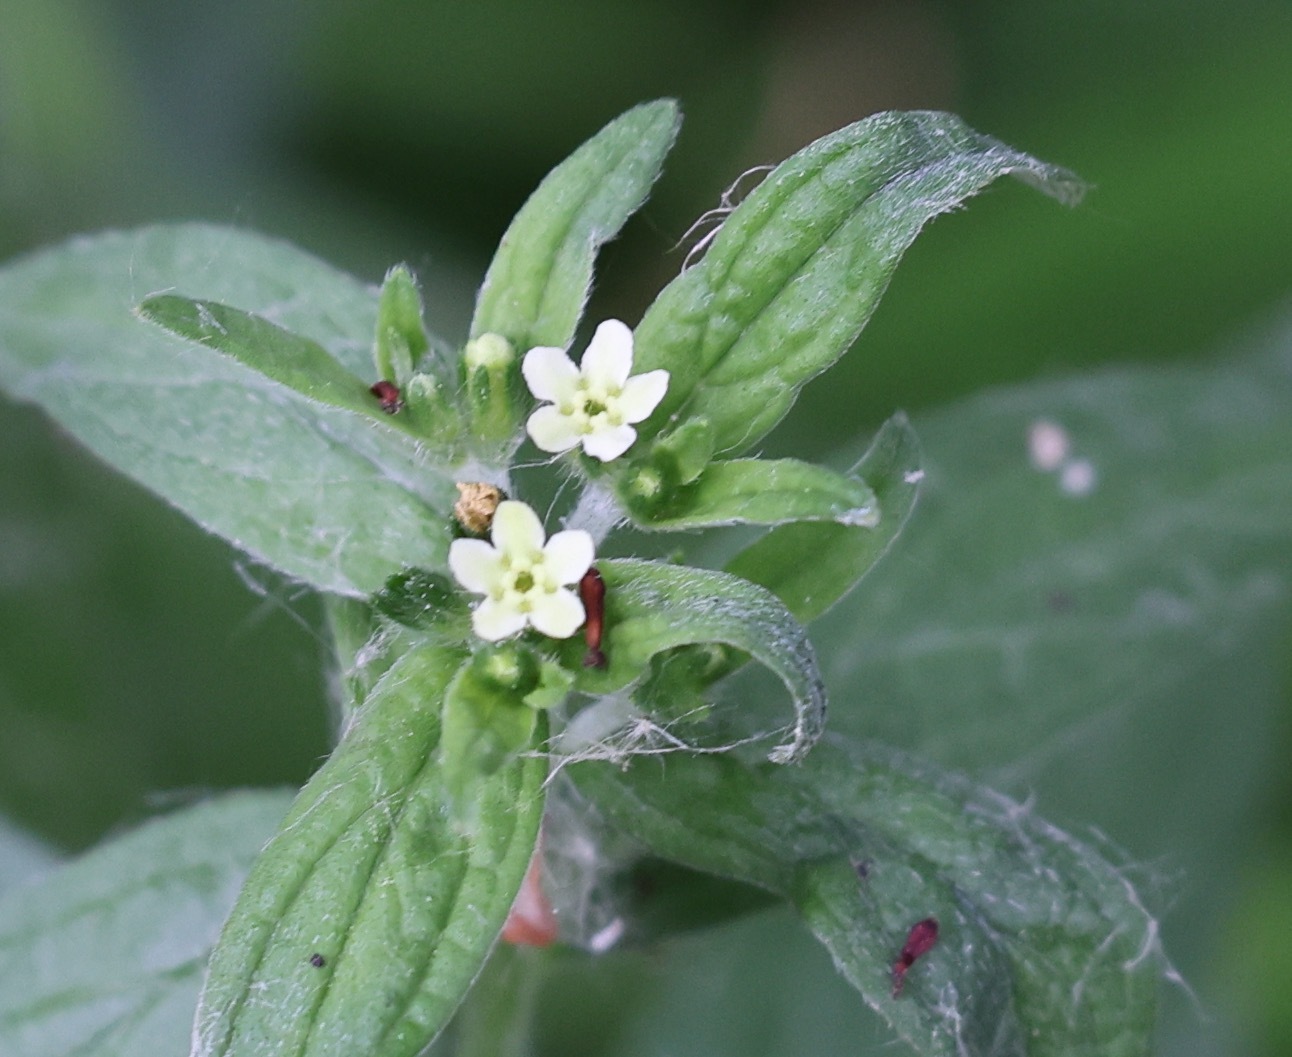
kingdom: Plantae
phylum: Tracheophyta
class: Magnoliopsida
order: Boraginales
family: Boraginaceae
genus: Lithospermum
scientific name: Lithospermum officinale
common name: Common gromwell
